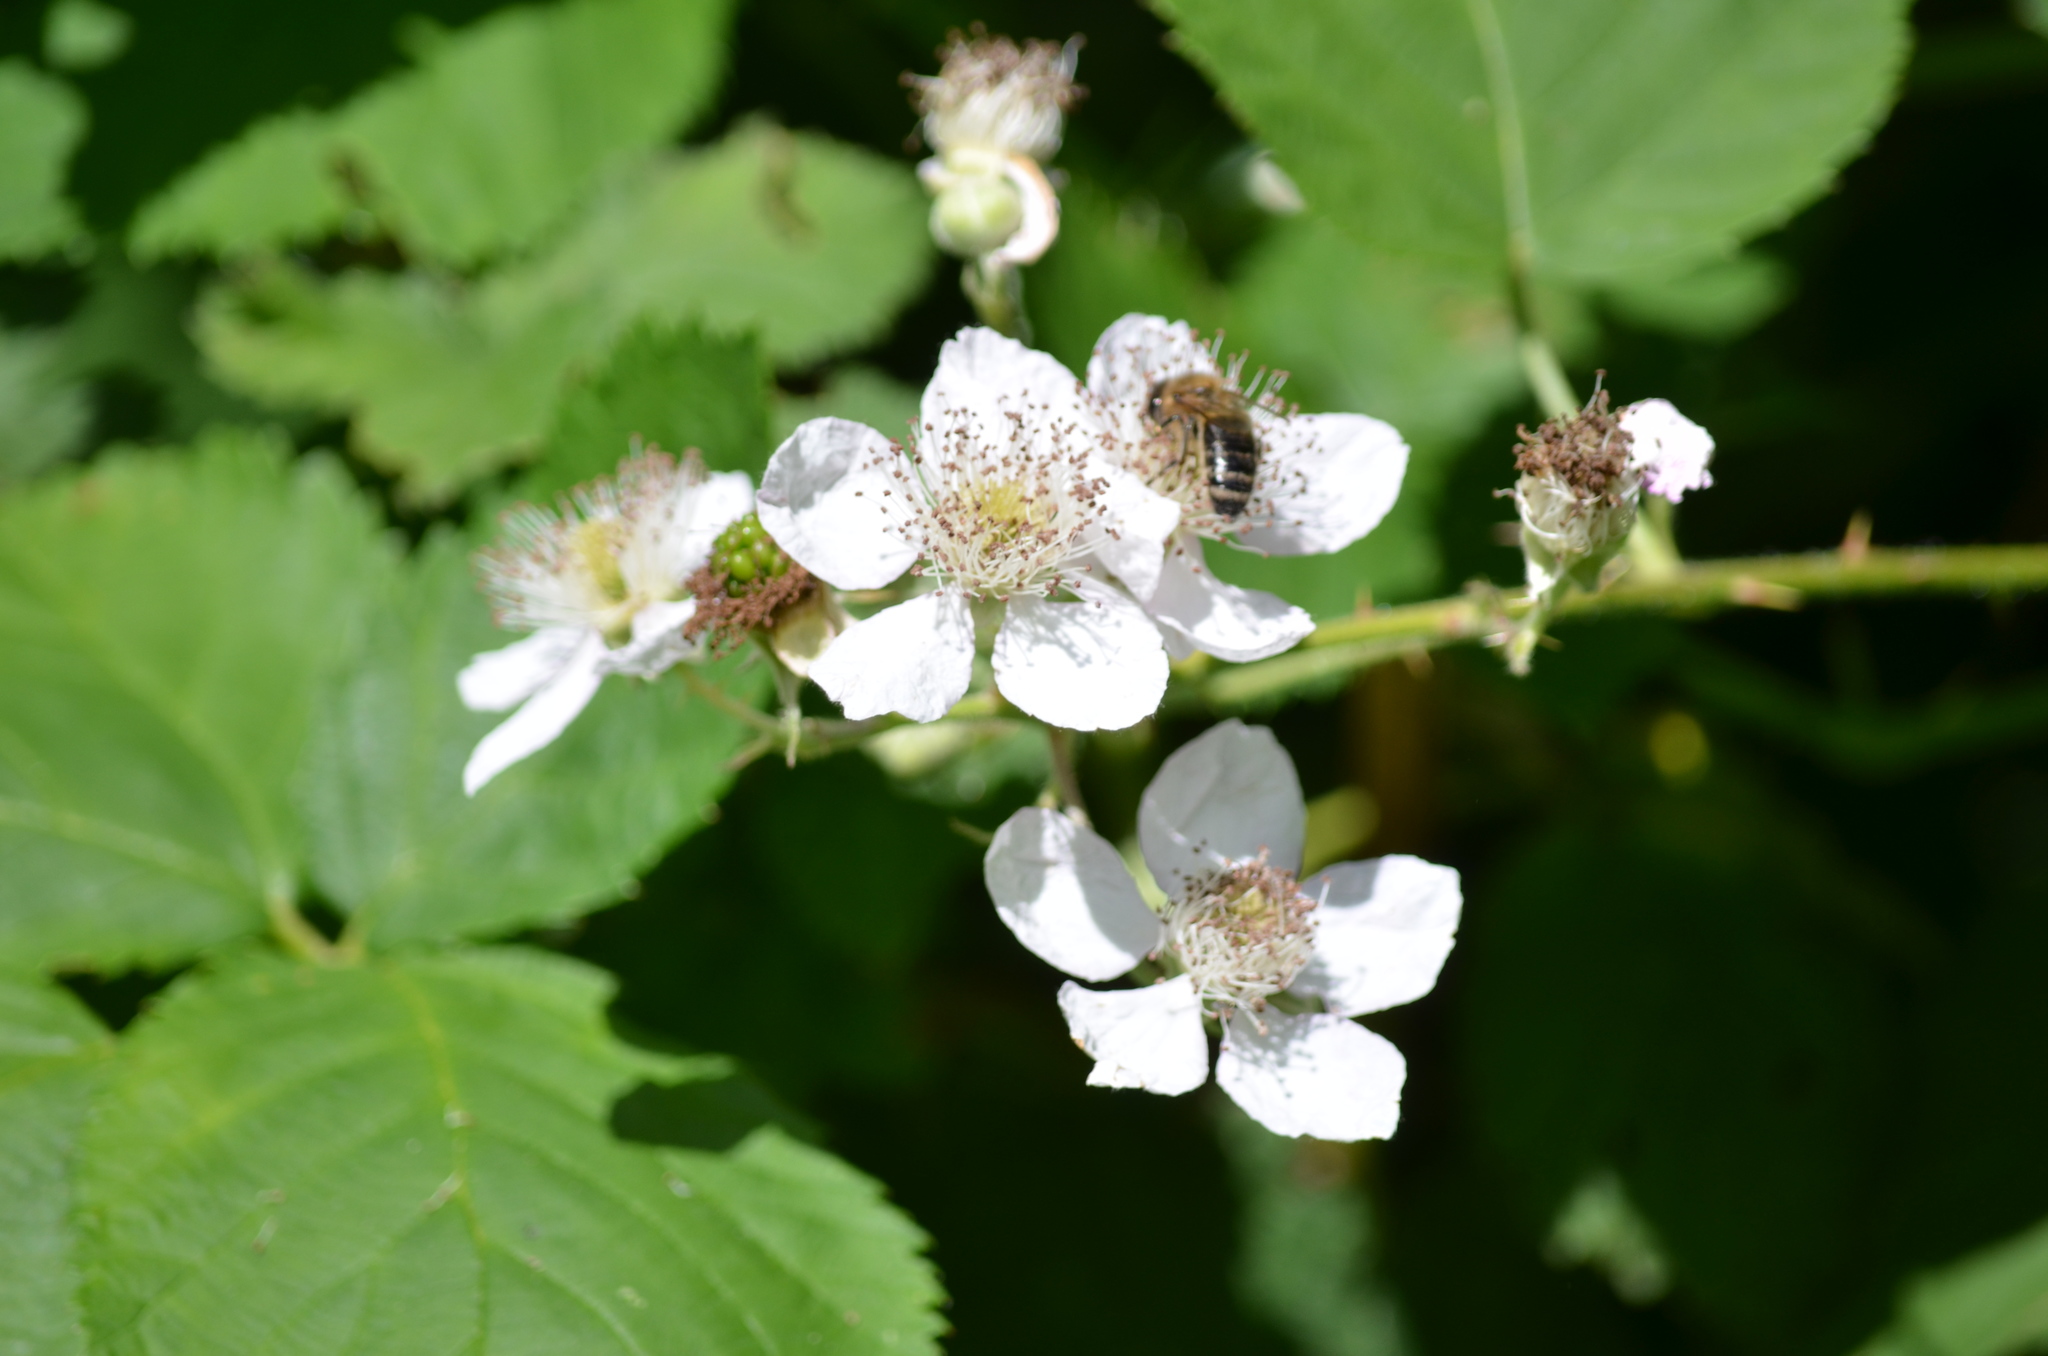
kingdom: Animalia
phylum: Arthropoda
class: Insecta
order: Hymenoptera
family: Apidae
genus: Apis
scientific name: Apis mellifera
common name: Honey bee
